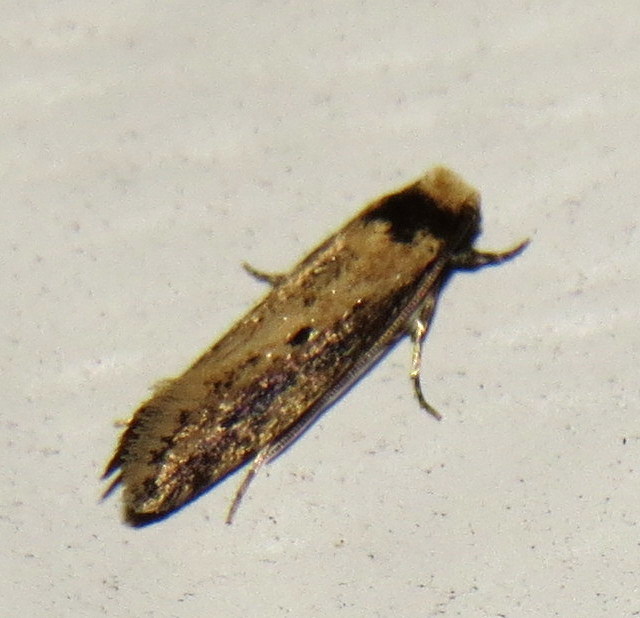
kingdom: Animalia
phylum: Arthropoda
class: Insecta
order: Lepidoptera
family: Tineidae
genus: Tinea
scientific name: Tinea apicimaculella
